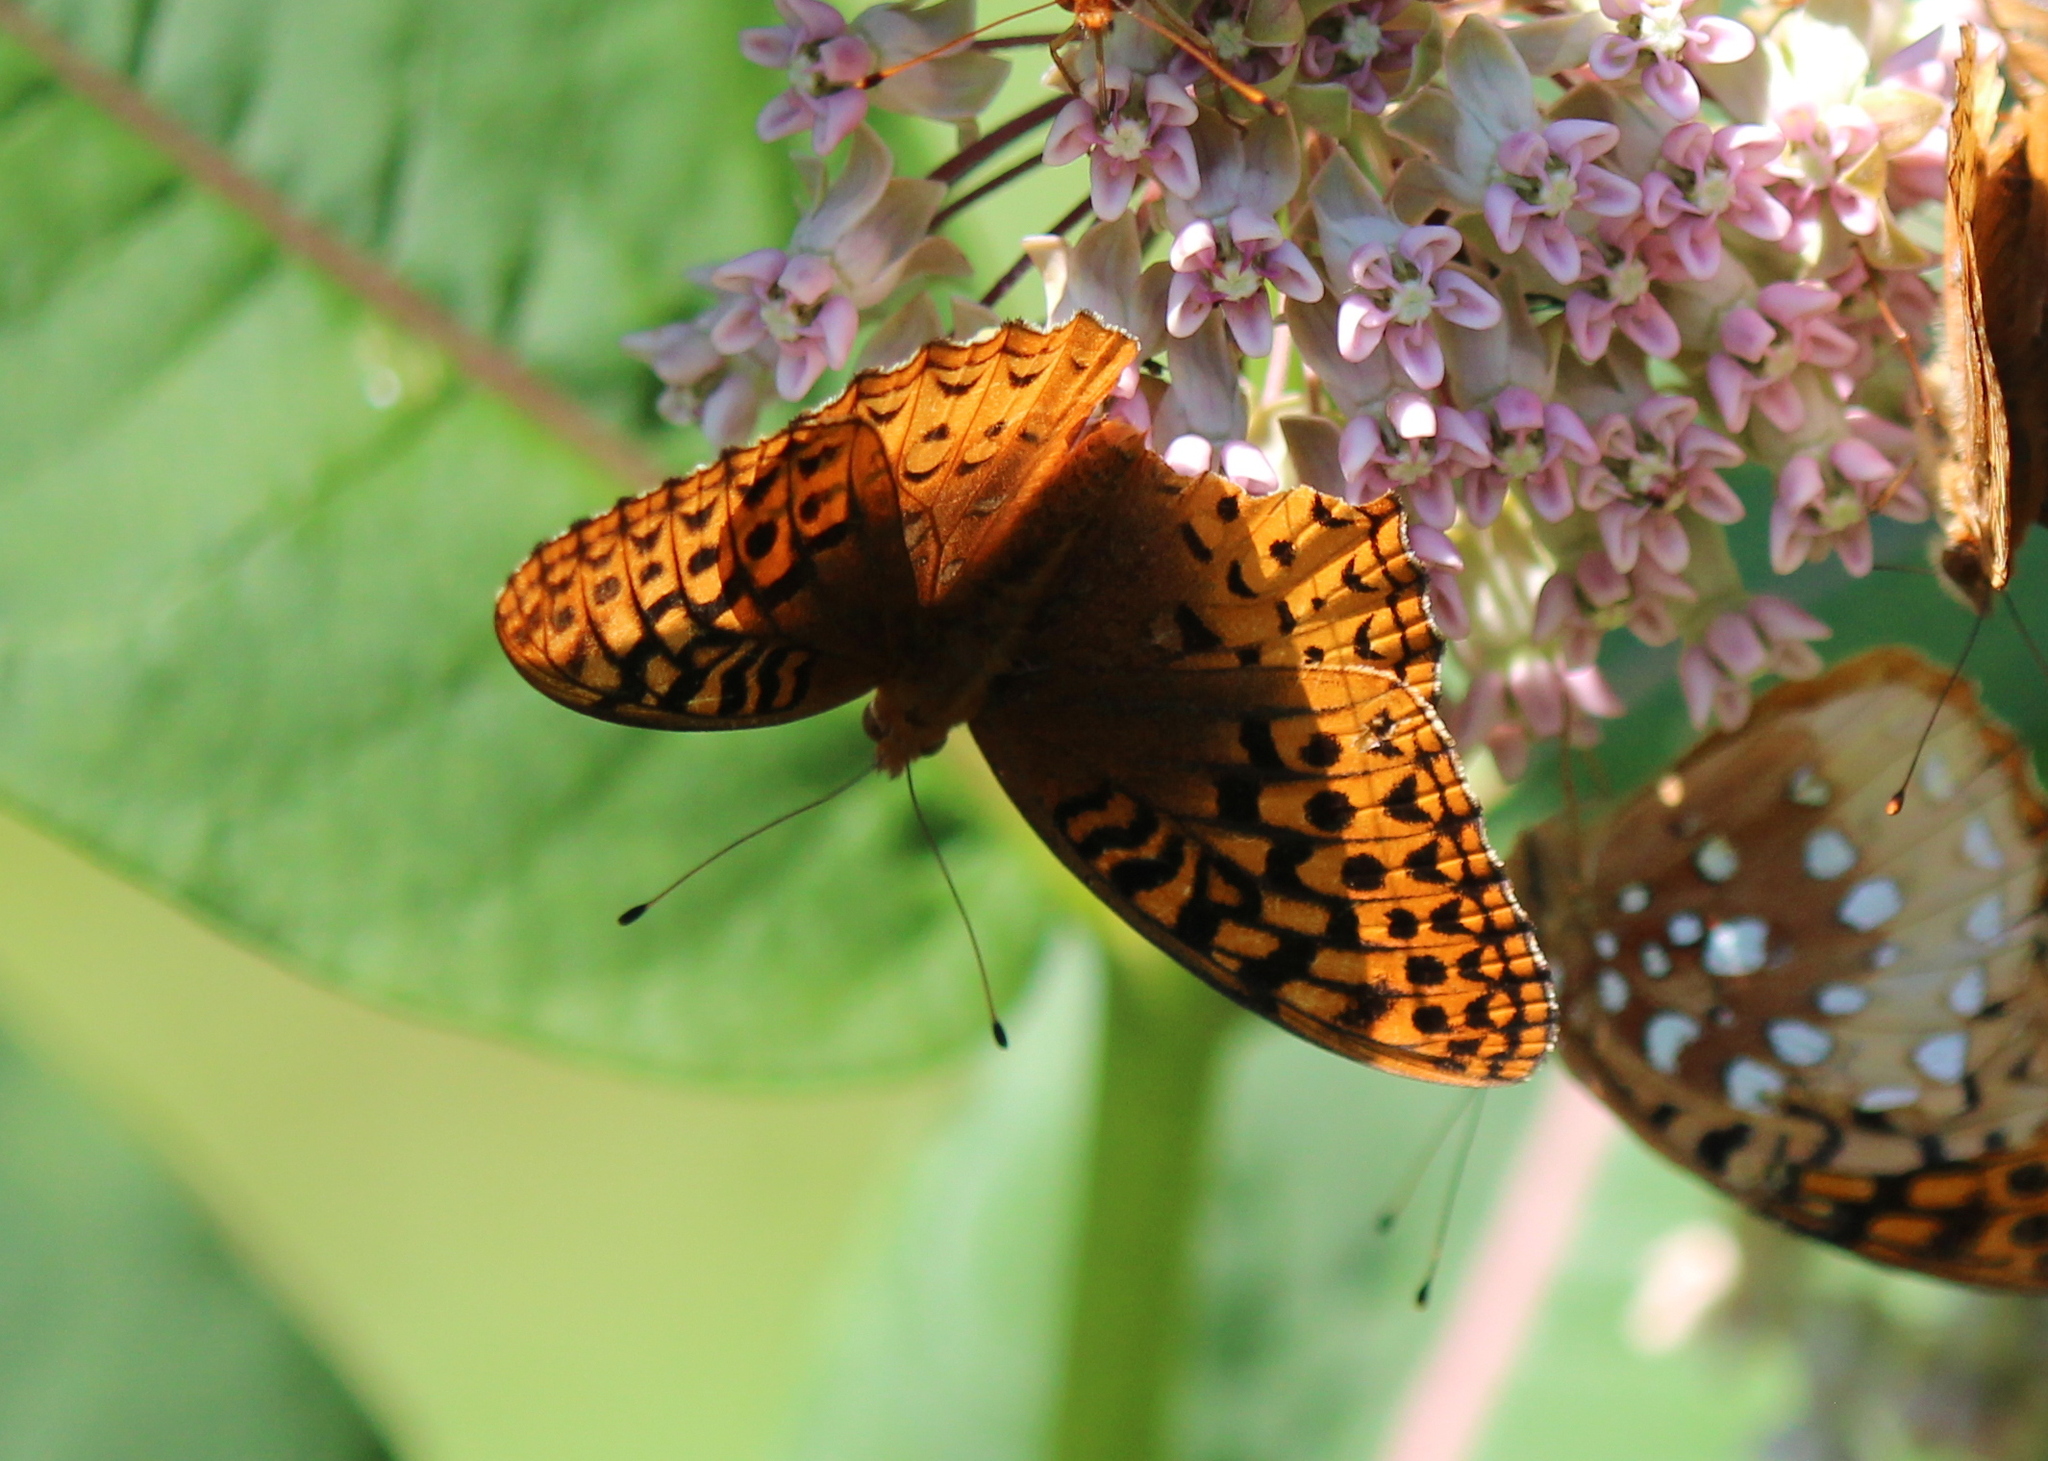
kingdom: Animalia
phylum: Arthropoda
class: Insecta
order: Lepidoptera
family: Nymphalidae
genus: Speyeria
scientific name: Speyeria cybele
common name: Great spangled fritillary
